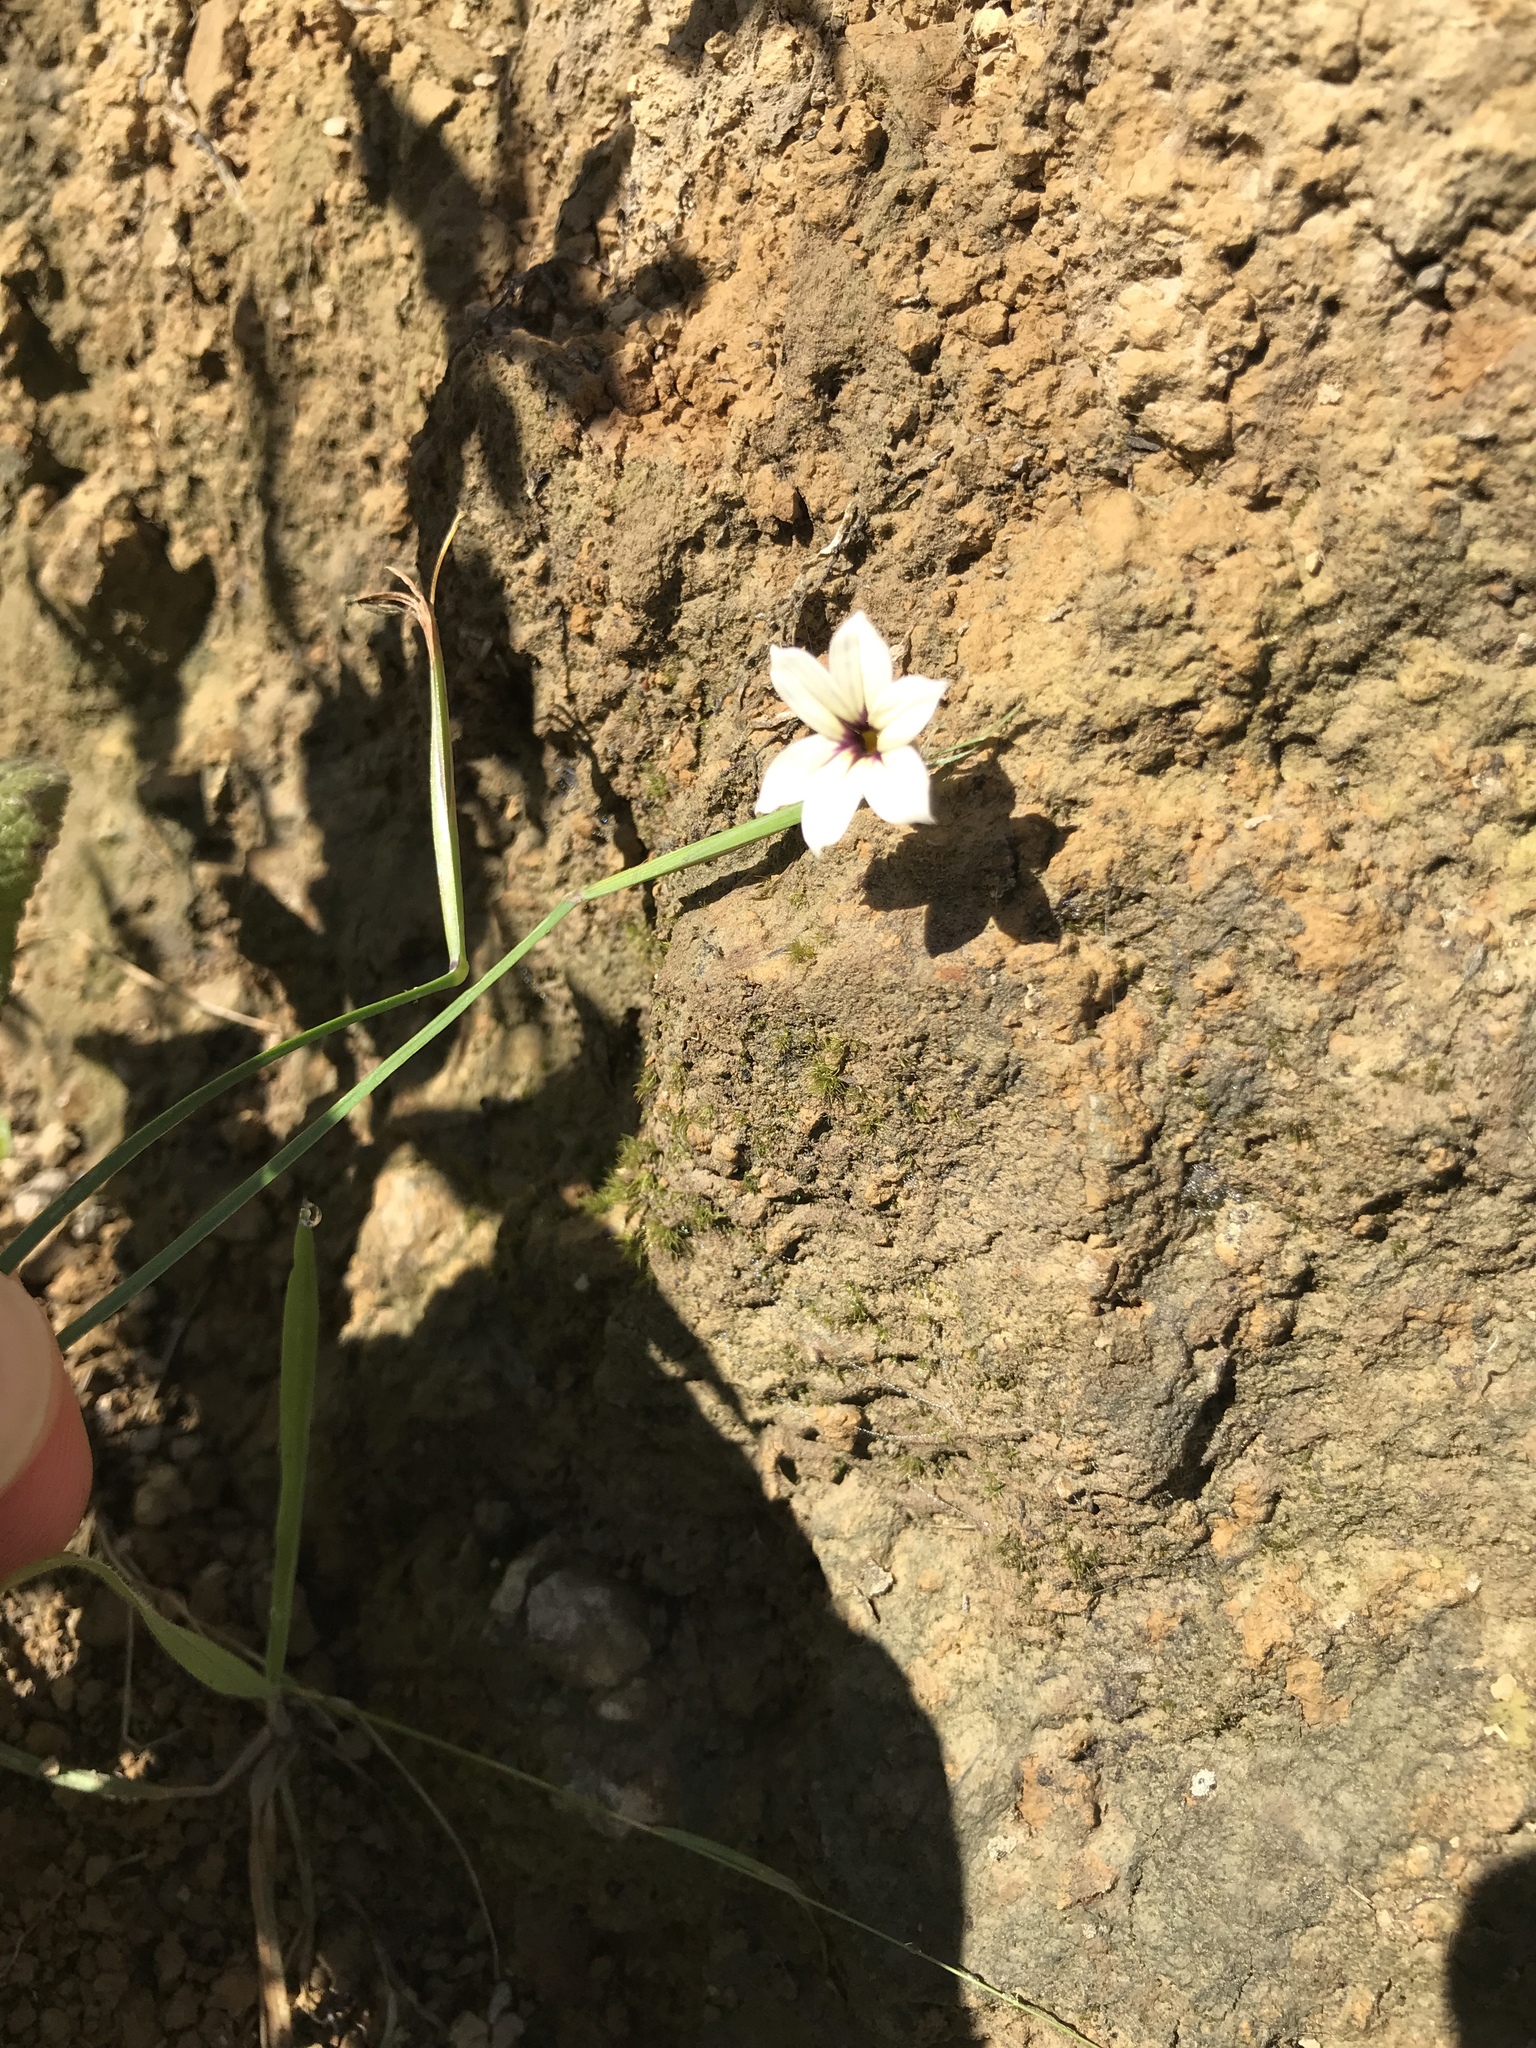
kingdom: Plantae
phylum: Tracheophyta
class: Liliopsida
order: Asparagales
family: Iridaceae
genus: Sisyrinchium
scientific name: Sisyrinchium micranthum
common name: Bermuda pigroot
